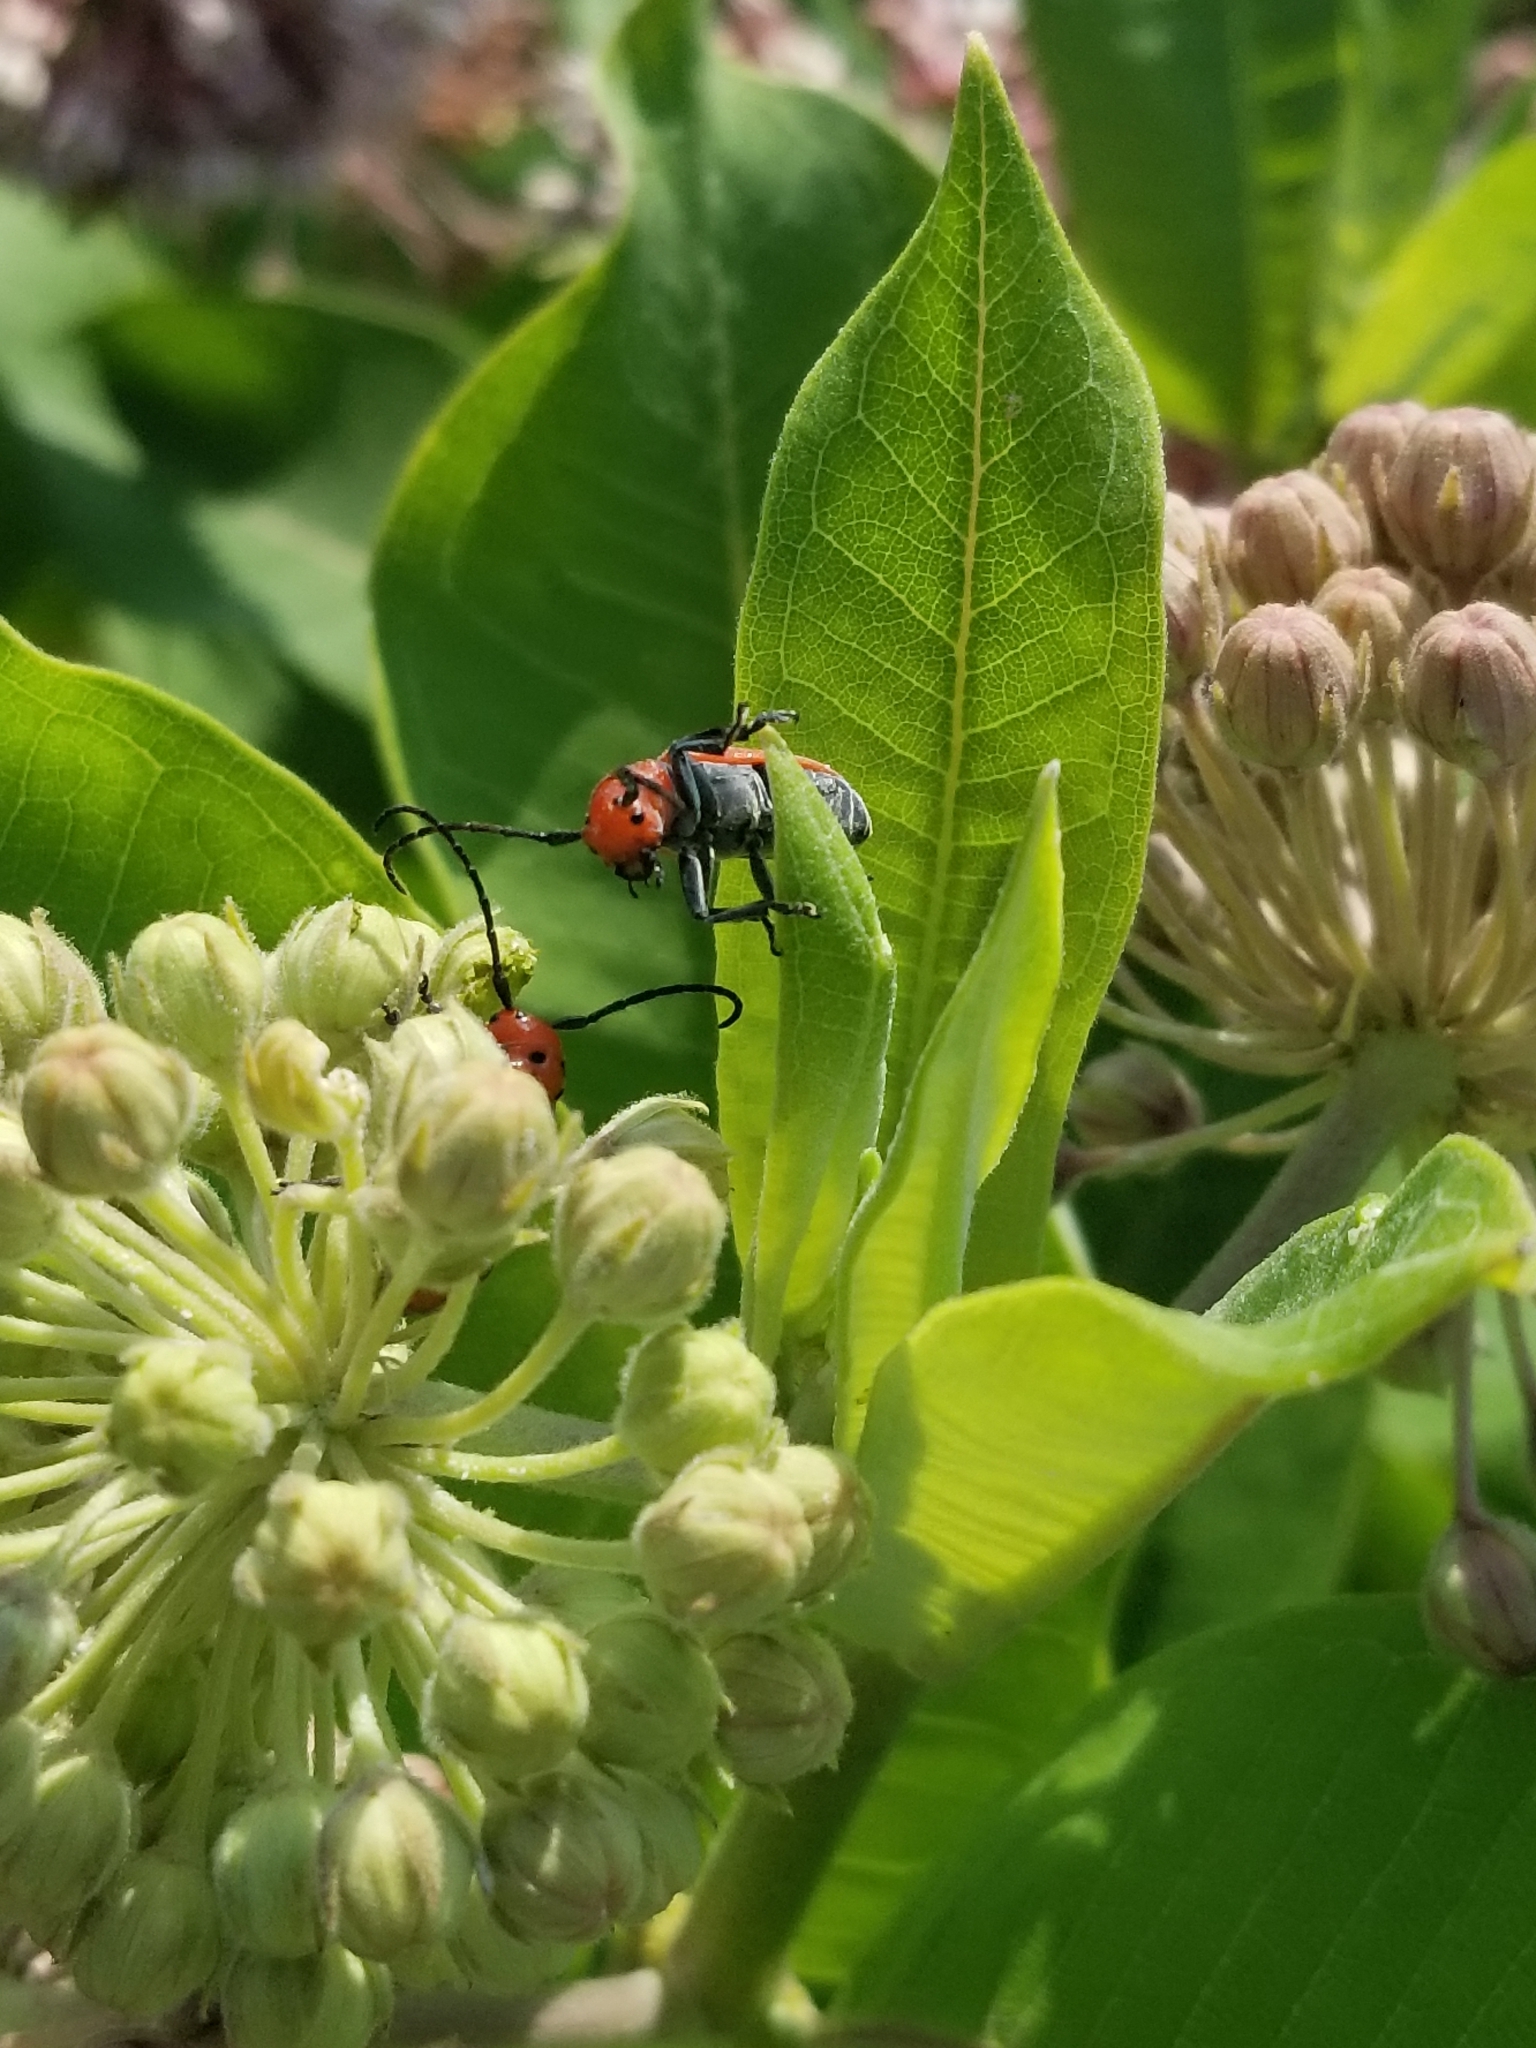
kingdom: Animalia
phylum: Arthropoda
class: Insecta
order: Coleoptera
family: Cerambycidae
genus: Tetraopes
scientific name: Tetraopes tetrophthalmus
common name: Red milkweed beetle
